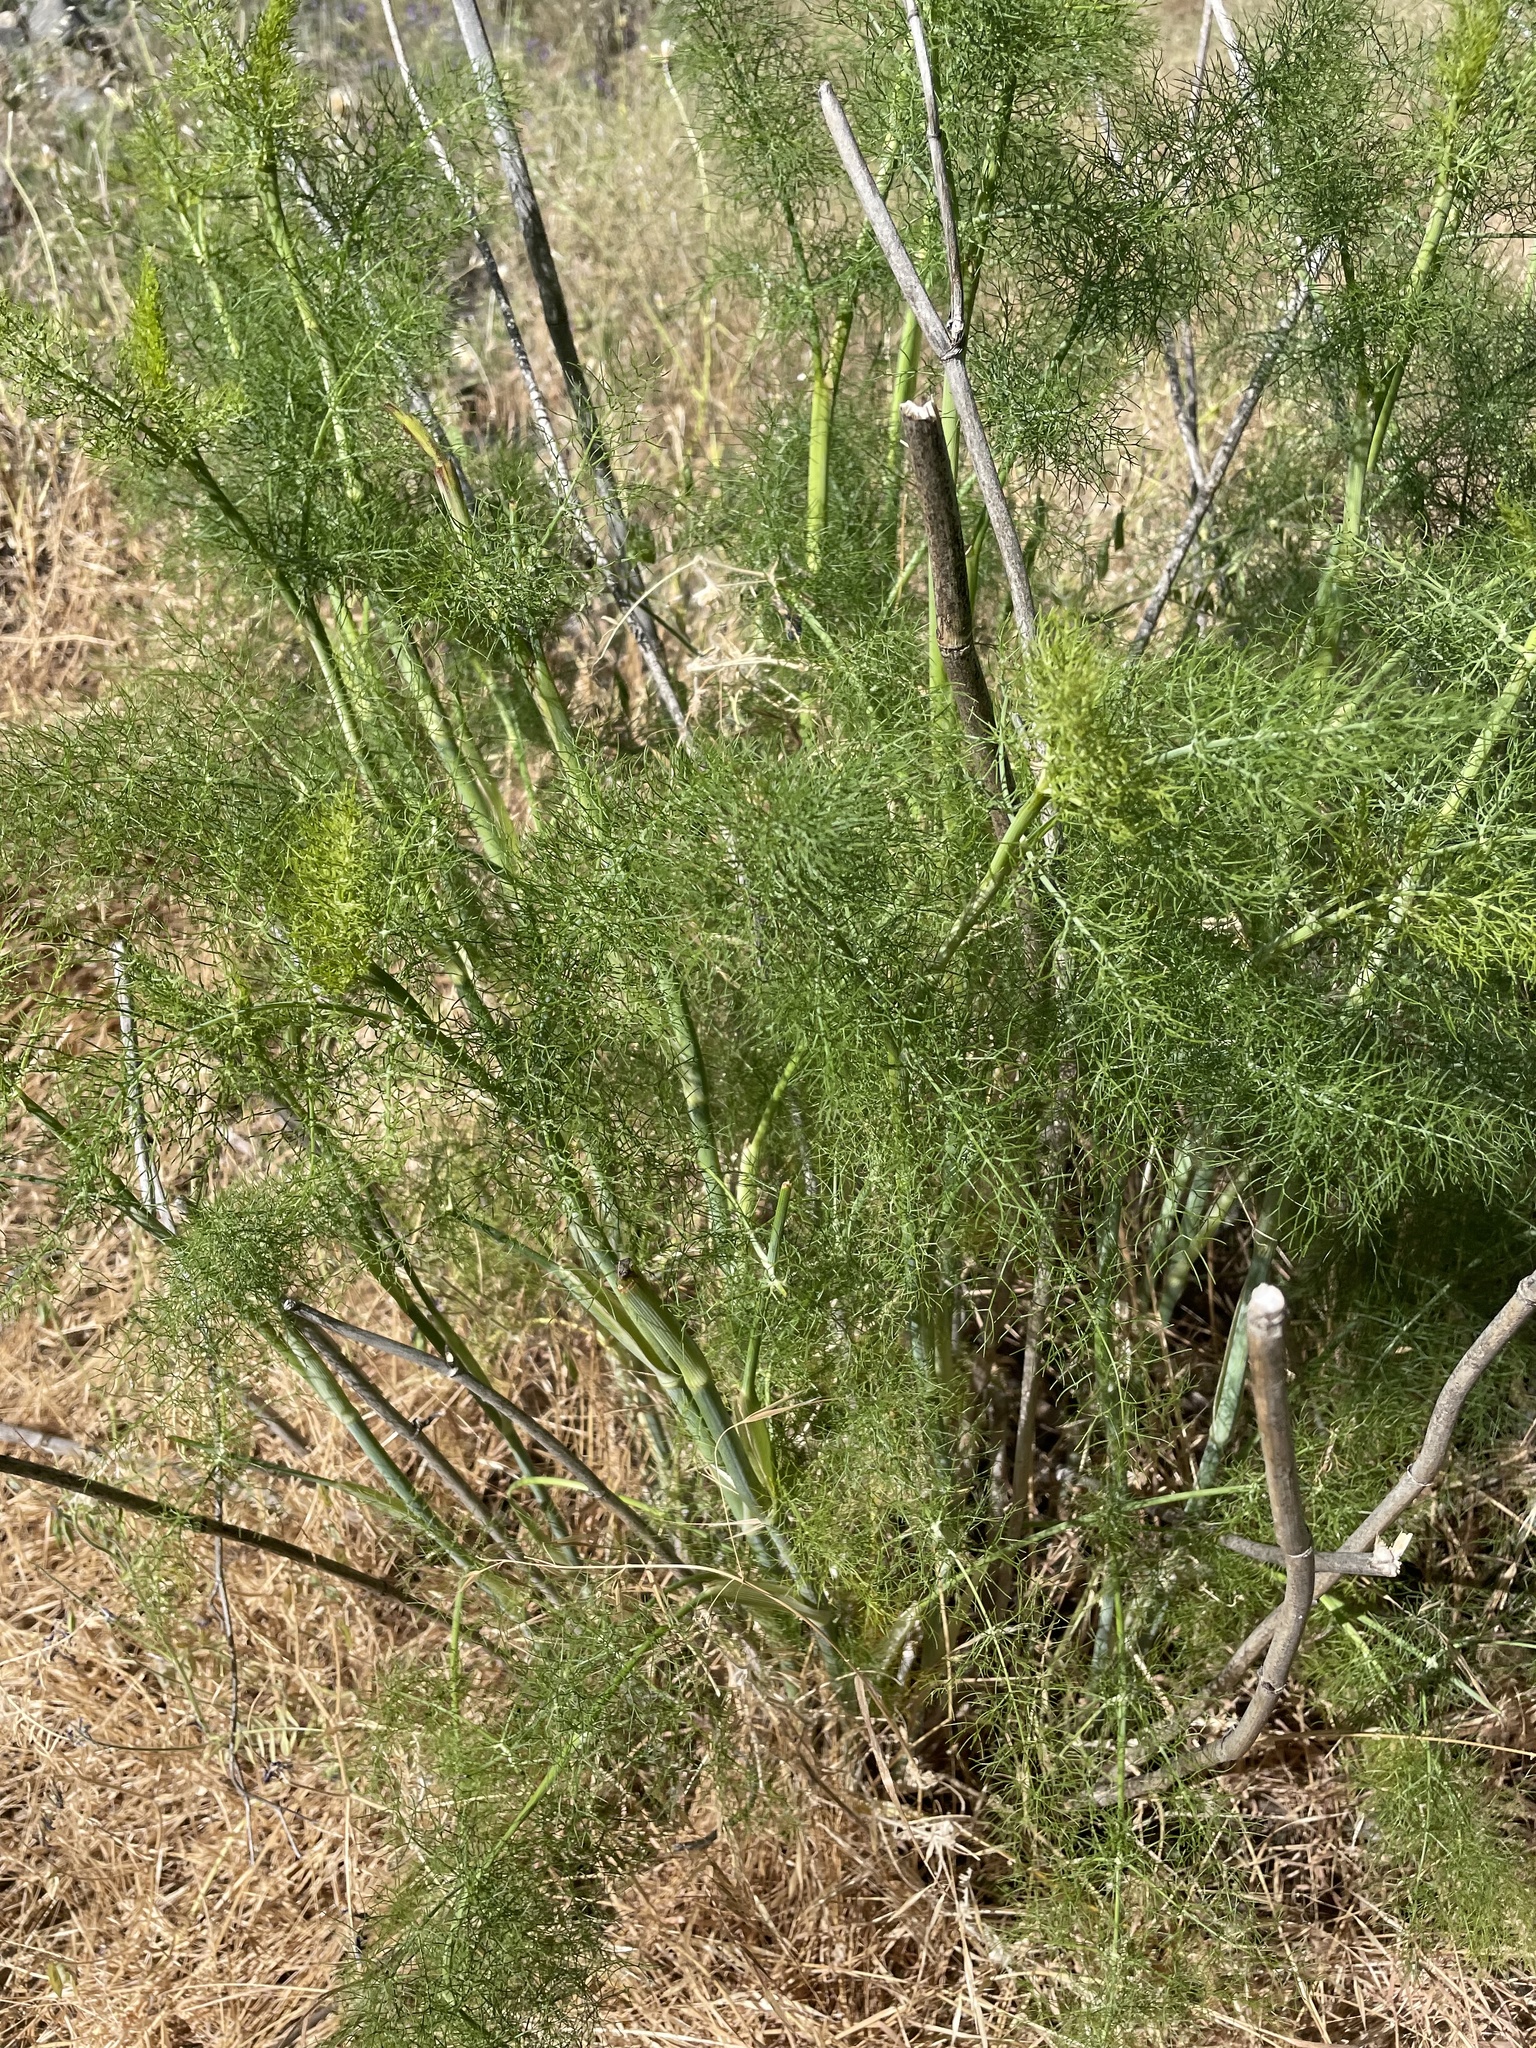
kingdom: Plantae
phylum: Tracheophyta
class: Magnoliopsida
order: Apiales
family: Apiaceae
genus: Foeniculum
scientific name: Foeniculum vulgare
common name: Fennel
